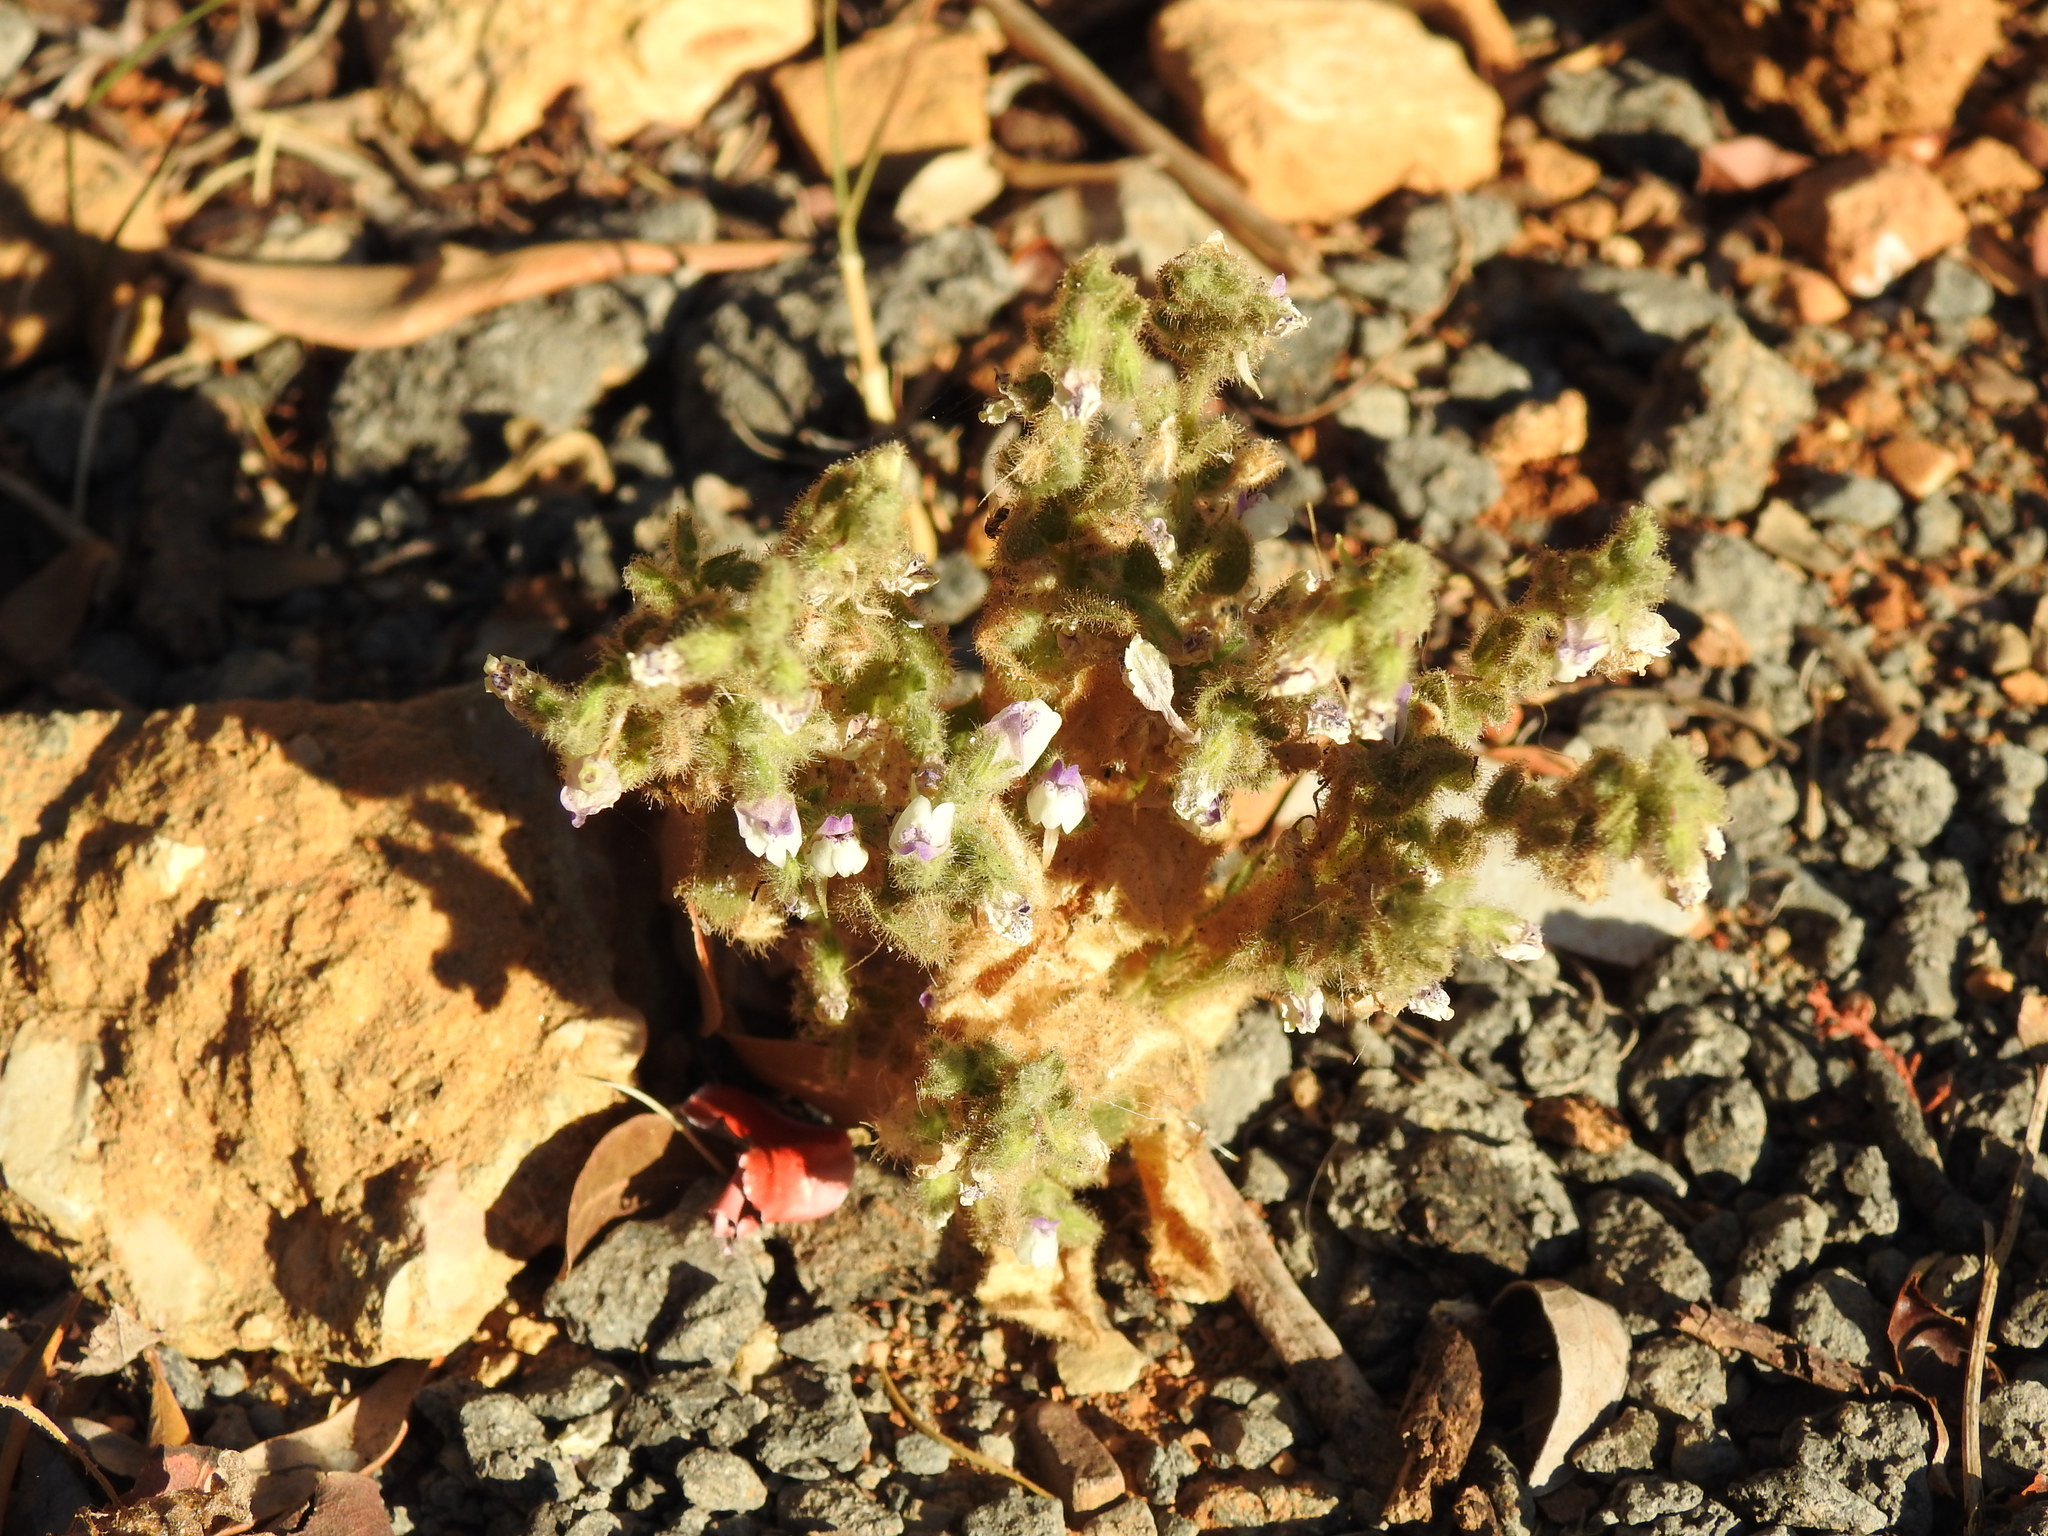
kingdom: Plantae
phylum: Tracheophyta
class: Magnoliopsida
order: Lamiales
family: Plantaginaceae
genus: Kickxia
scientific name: Kickxia lanigera
